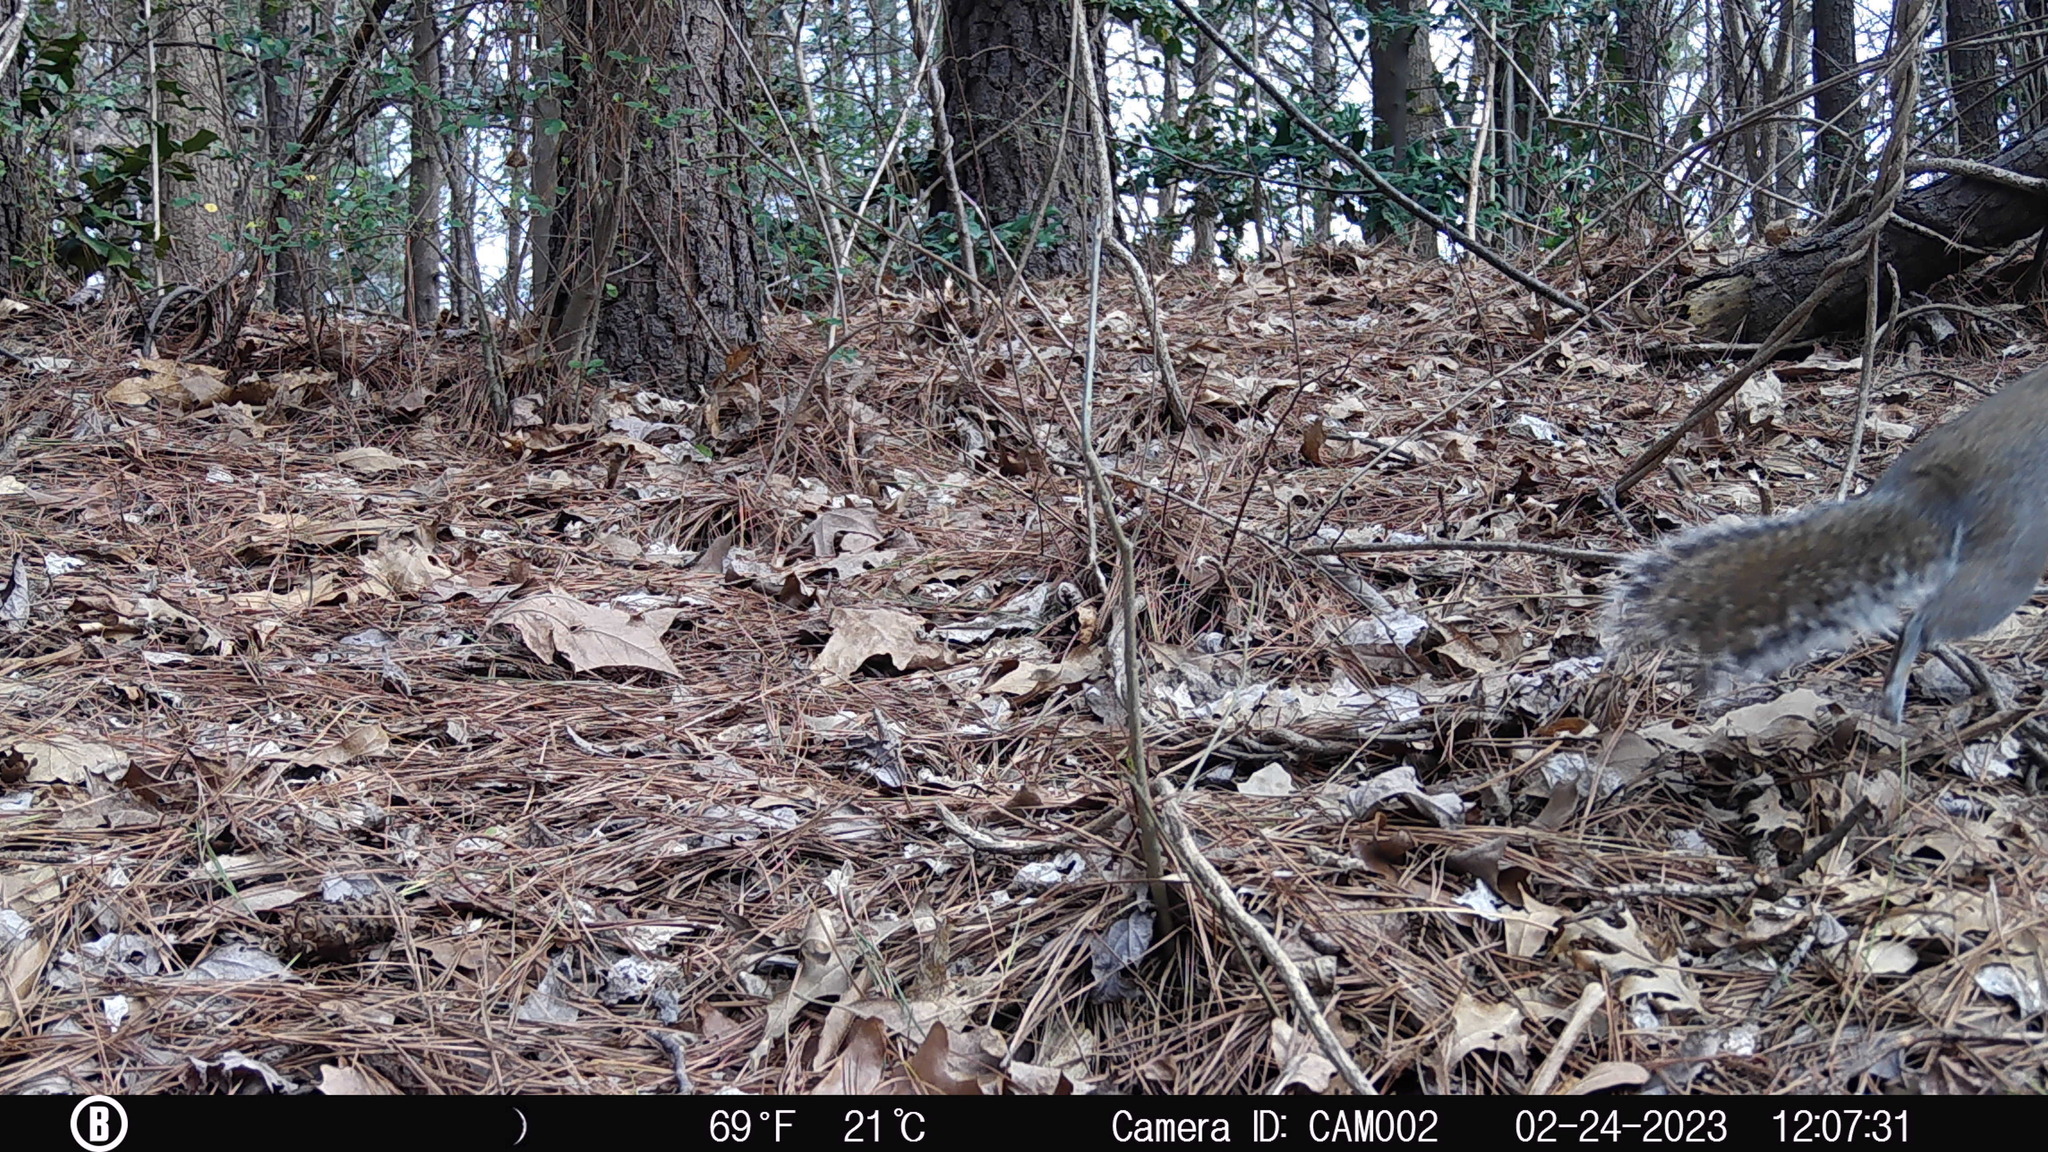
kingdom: Animalia
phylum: Chordata
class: Mammalia
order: Rodentia
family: Sciuridae
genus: Sciurus
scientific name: Sciurus carolinensis
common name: Eastern gray squirrel
